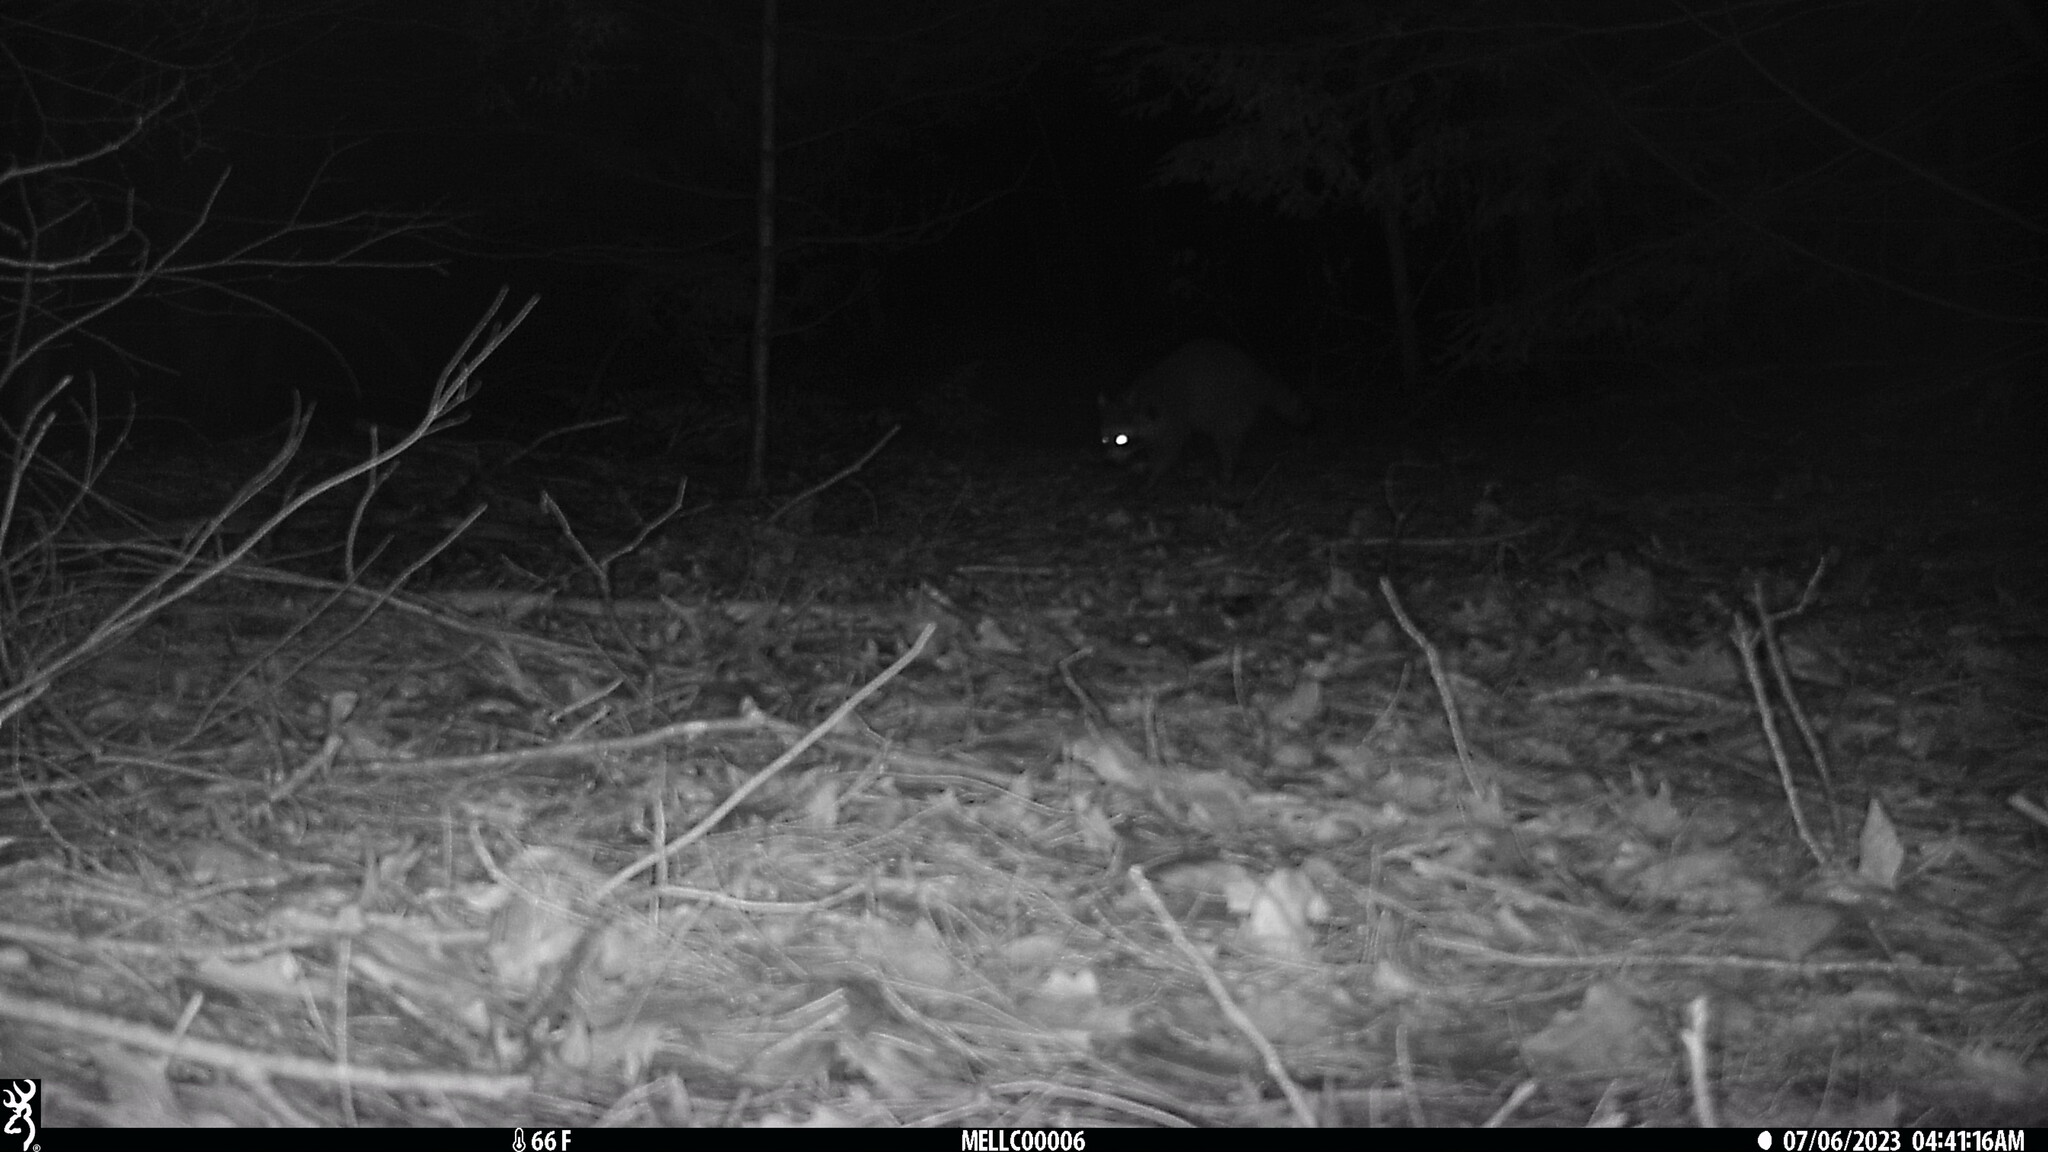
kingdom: Animalia
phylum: Chordata
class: Mammalia
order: Carnivora
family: Procyonidae
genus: Procyon
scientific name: Procyon lotor
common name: Raccoon
